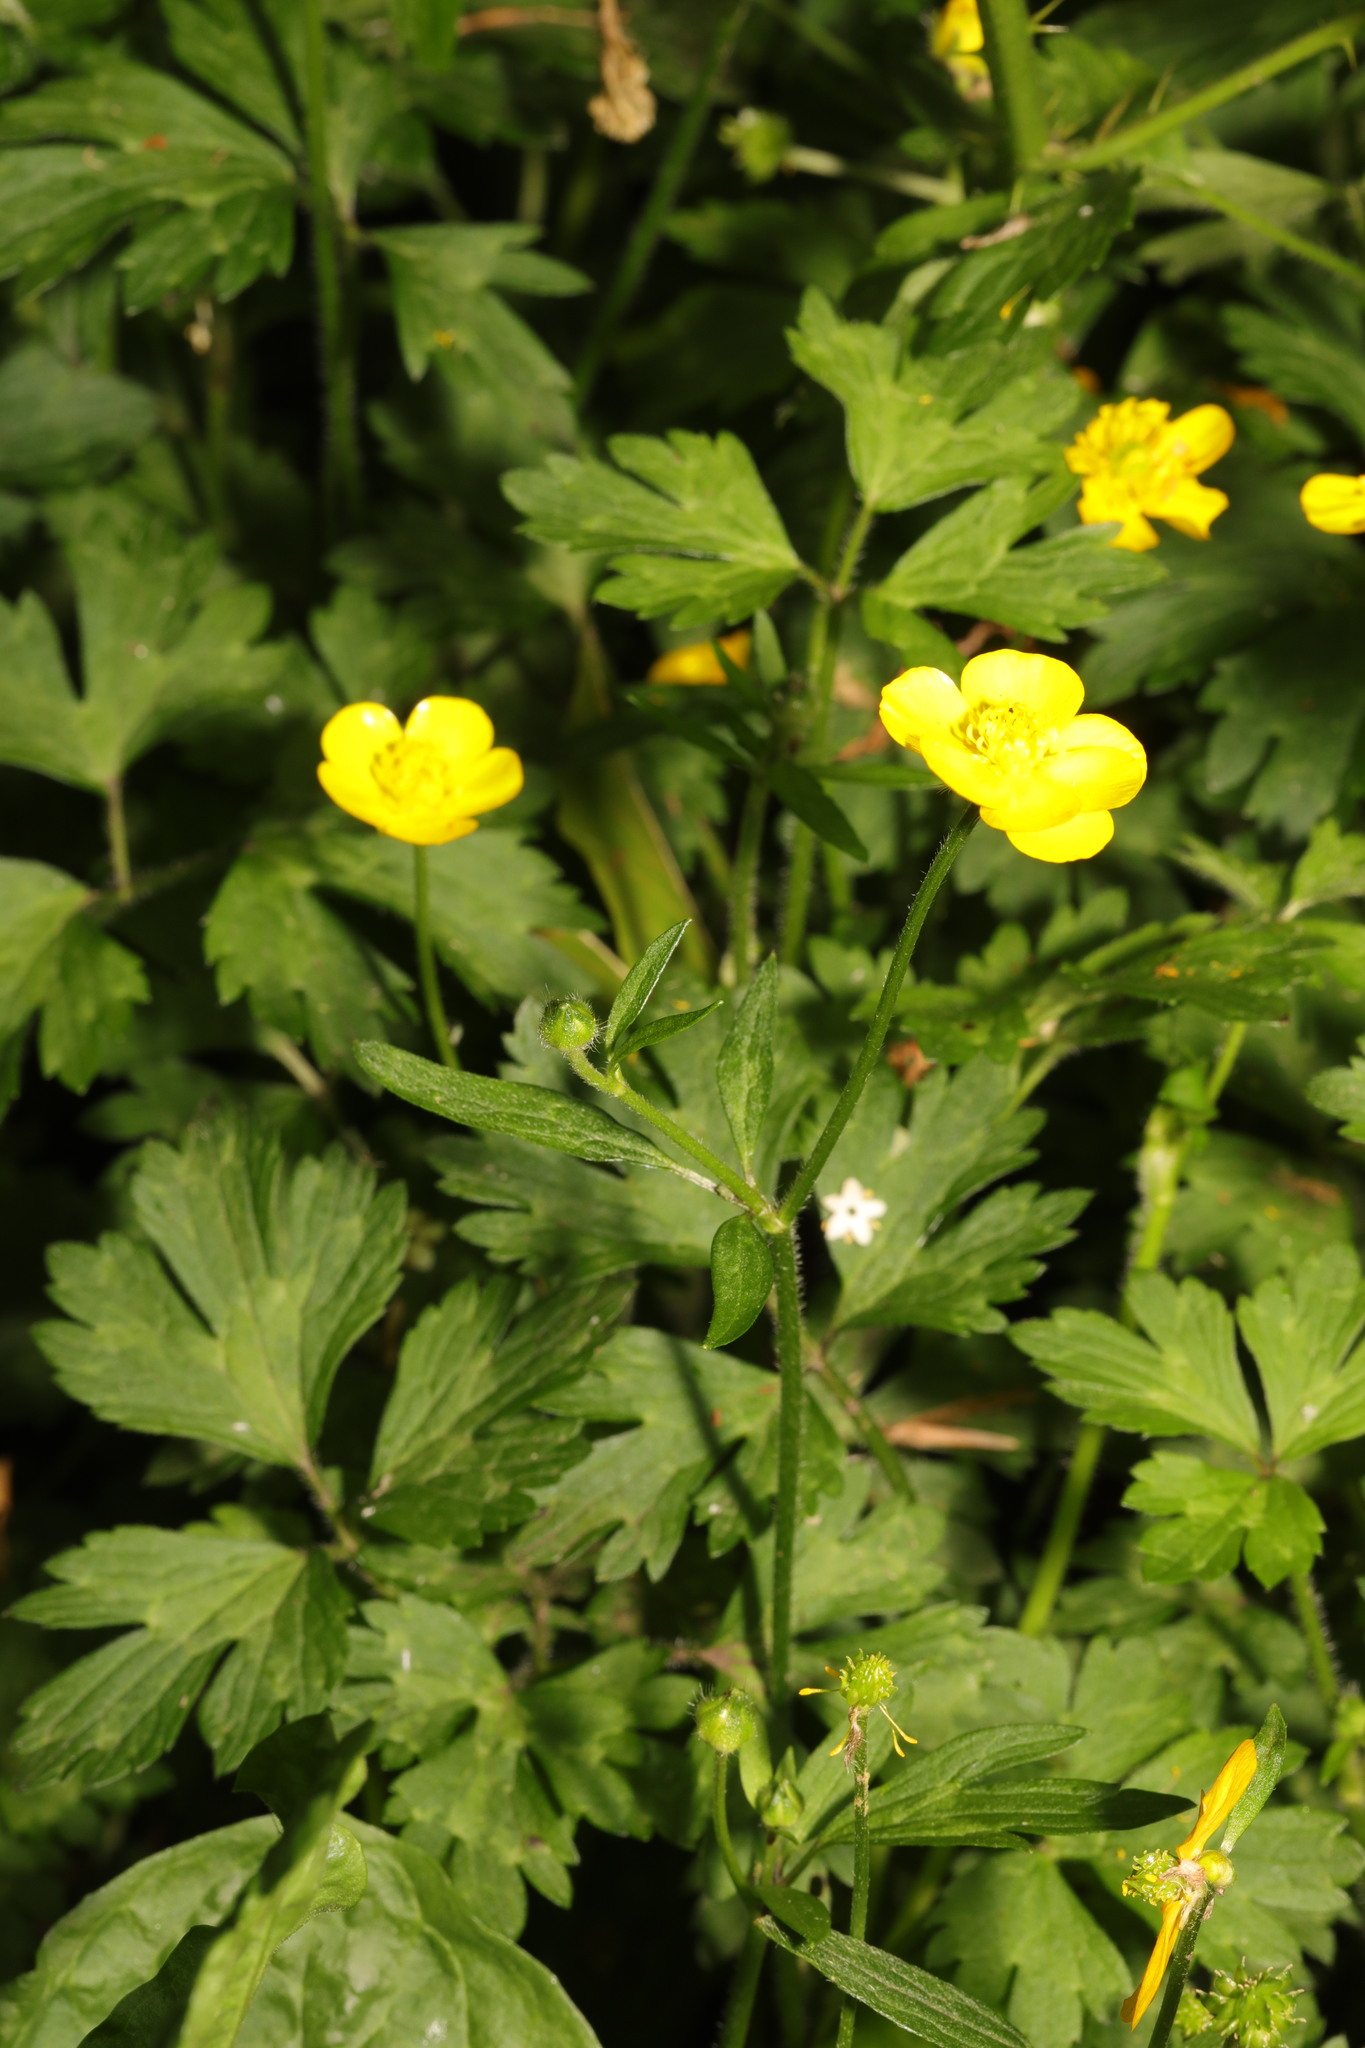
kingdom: Plantae
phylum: Tracheophyta
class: Magnoliopsida
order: Ranunculales
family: Ranunculaceae
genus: Ranunculus
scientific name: Ranunculus repens
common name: Creeping buttercup
